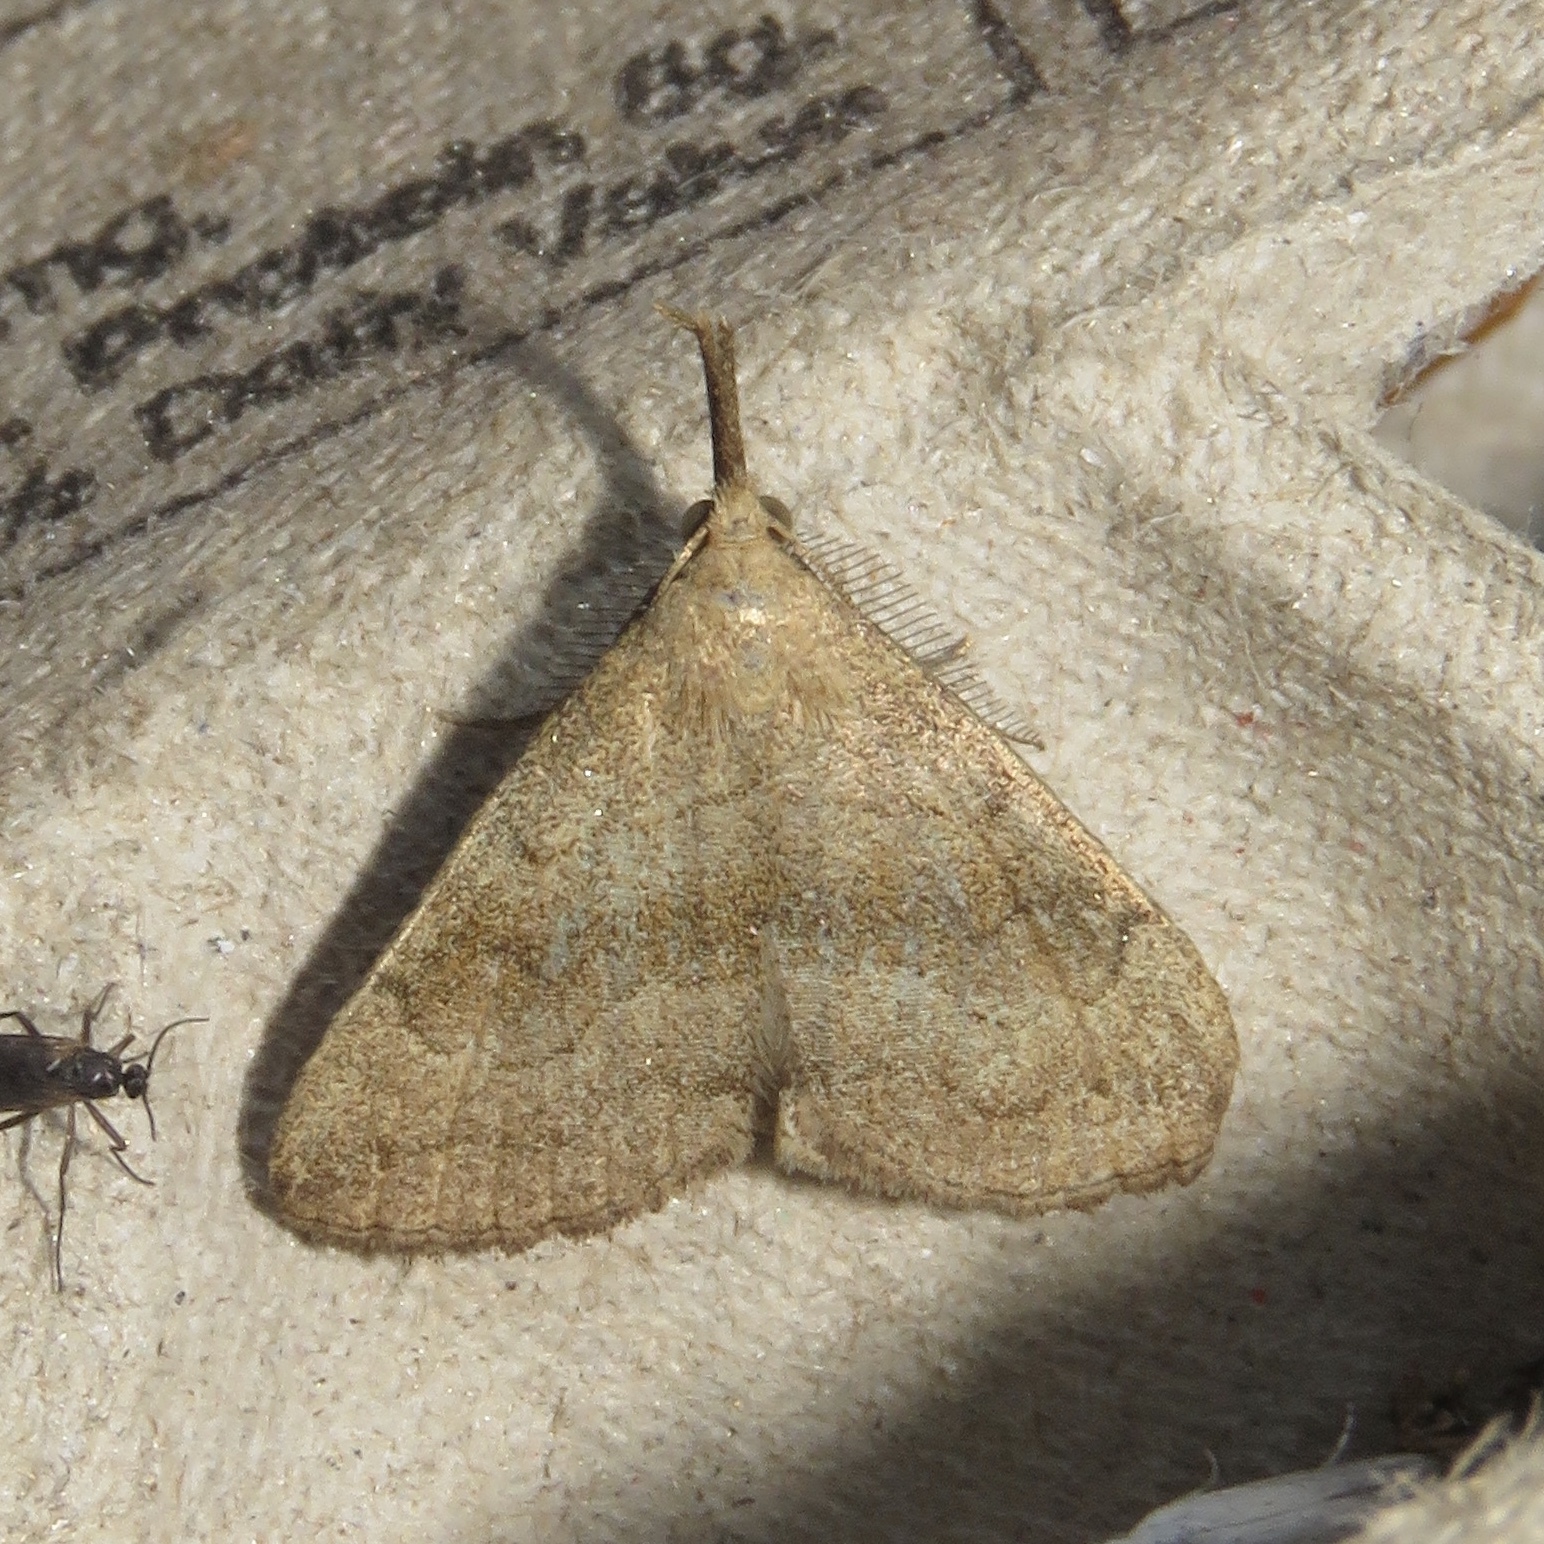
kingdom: Animalia
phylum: Arthropoda
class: Insecta
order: Lepidoptera
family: Erebidae
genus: Phalaenostola
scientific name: Phalaenostola metonalis
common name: Pale phalaenostola moth
